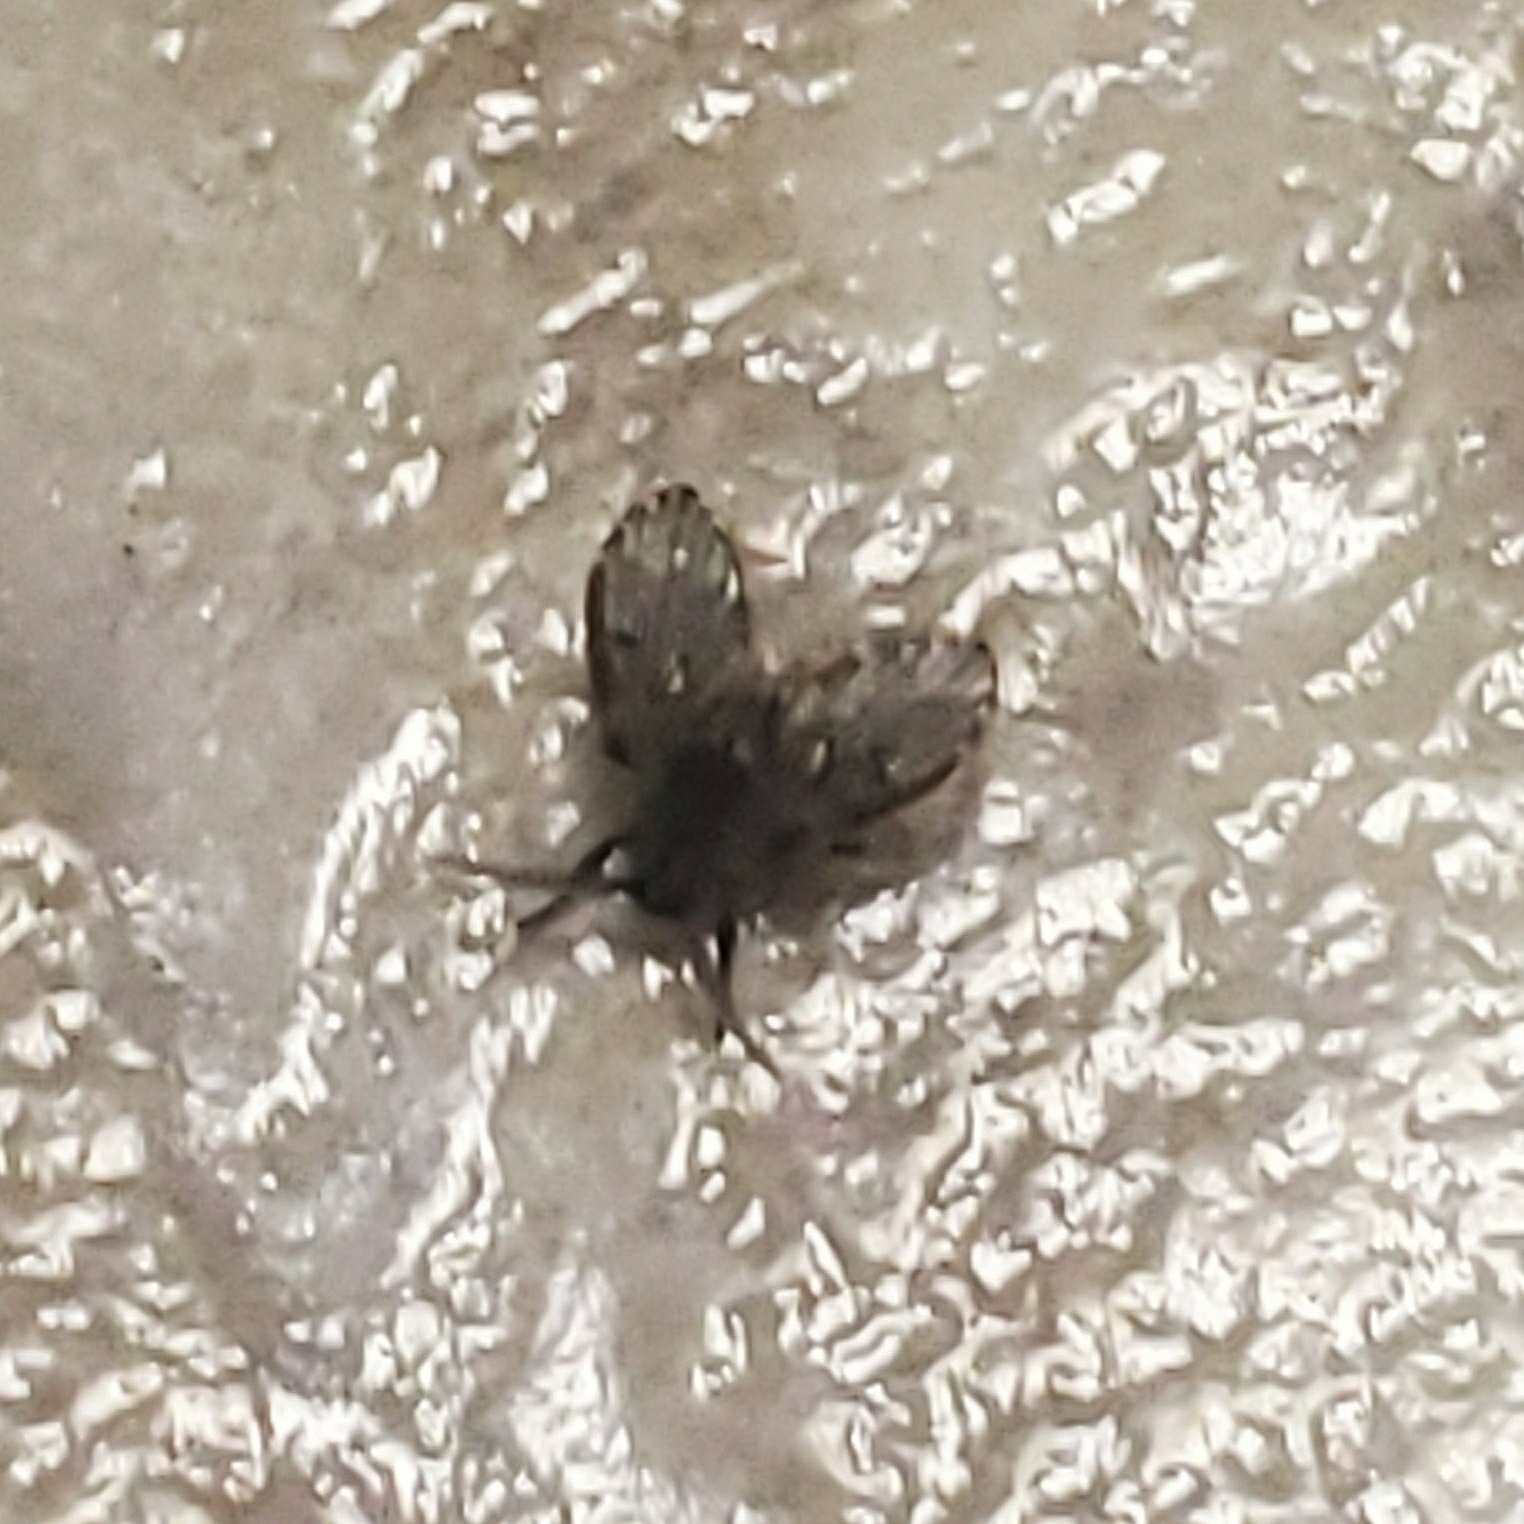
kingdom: Animalia
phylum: Arthropoda
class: Insecta
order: Diptera
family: Psychodidae
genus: Clogmia
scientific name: Clogmia albipunctatus
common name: White-spotted moth fly
